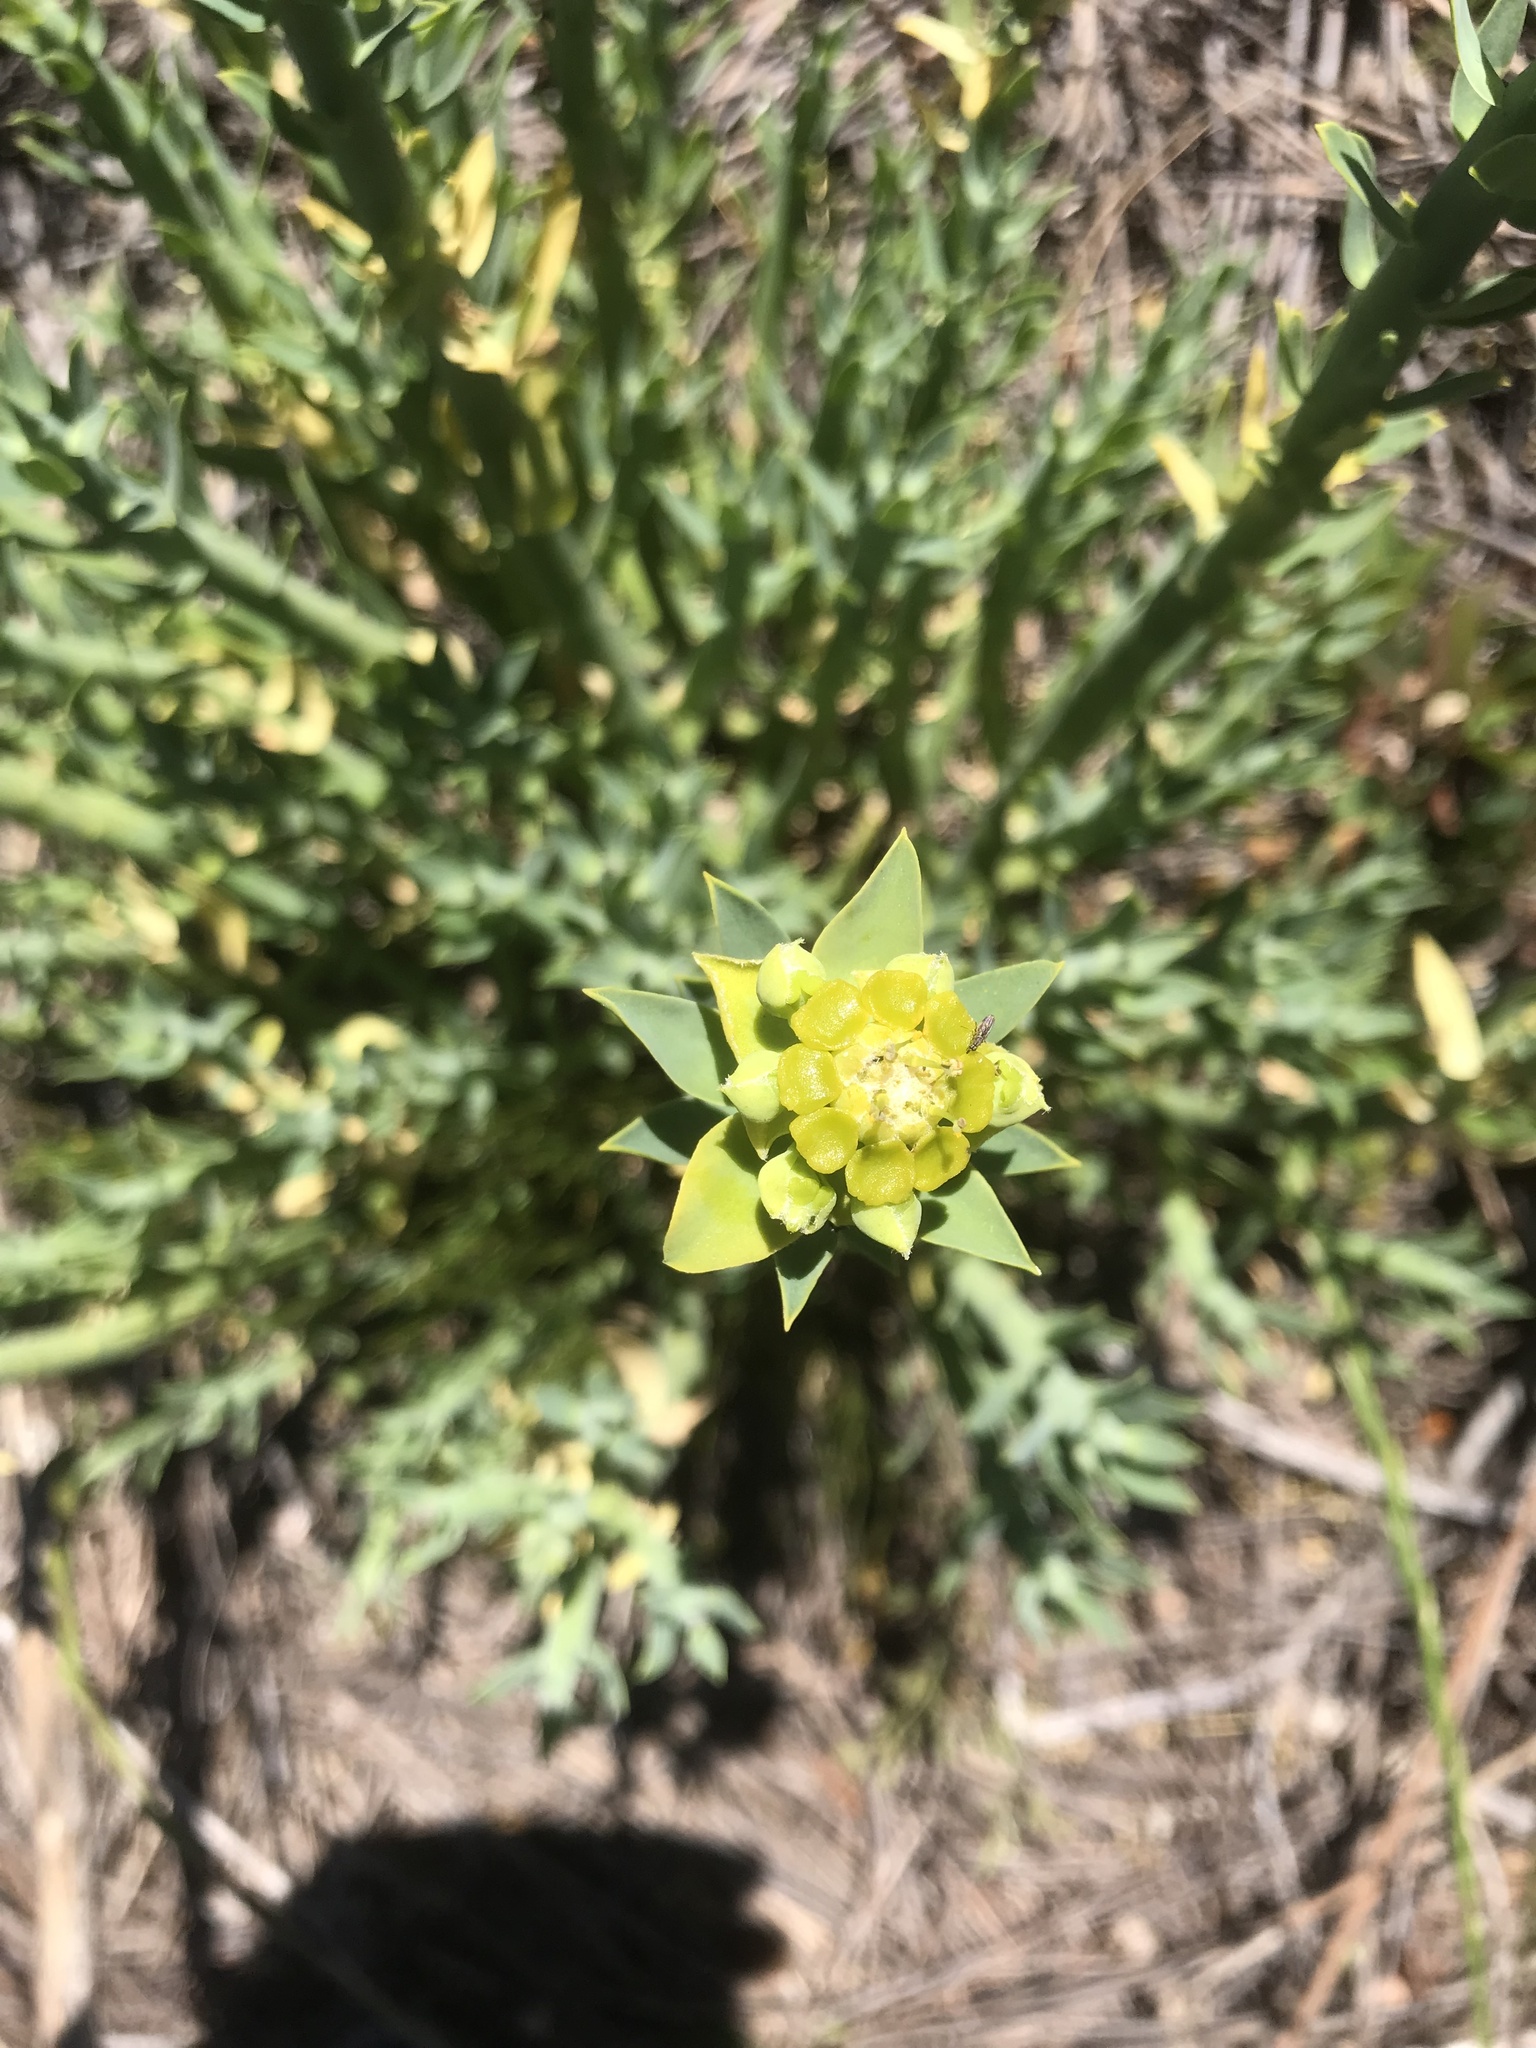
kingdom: Plantae
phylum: Tracheophyta
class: Magnoliopsida
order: Malpighiales
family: Euphorbiaceae
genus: Euphorbia
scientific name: Euphorbia mauritanica
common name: Jackal's-food
